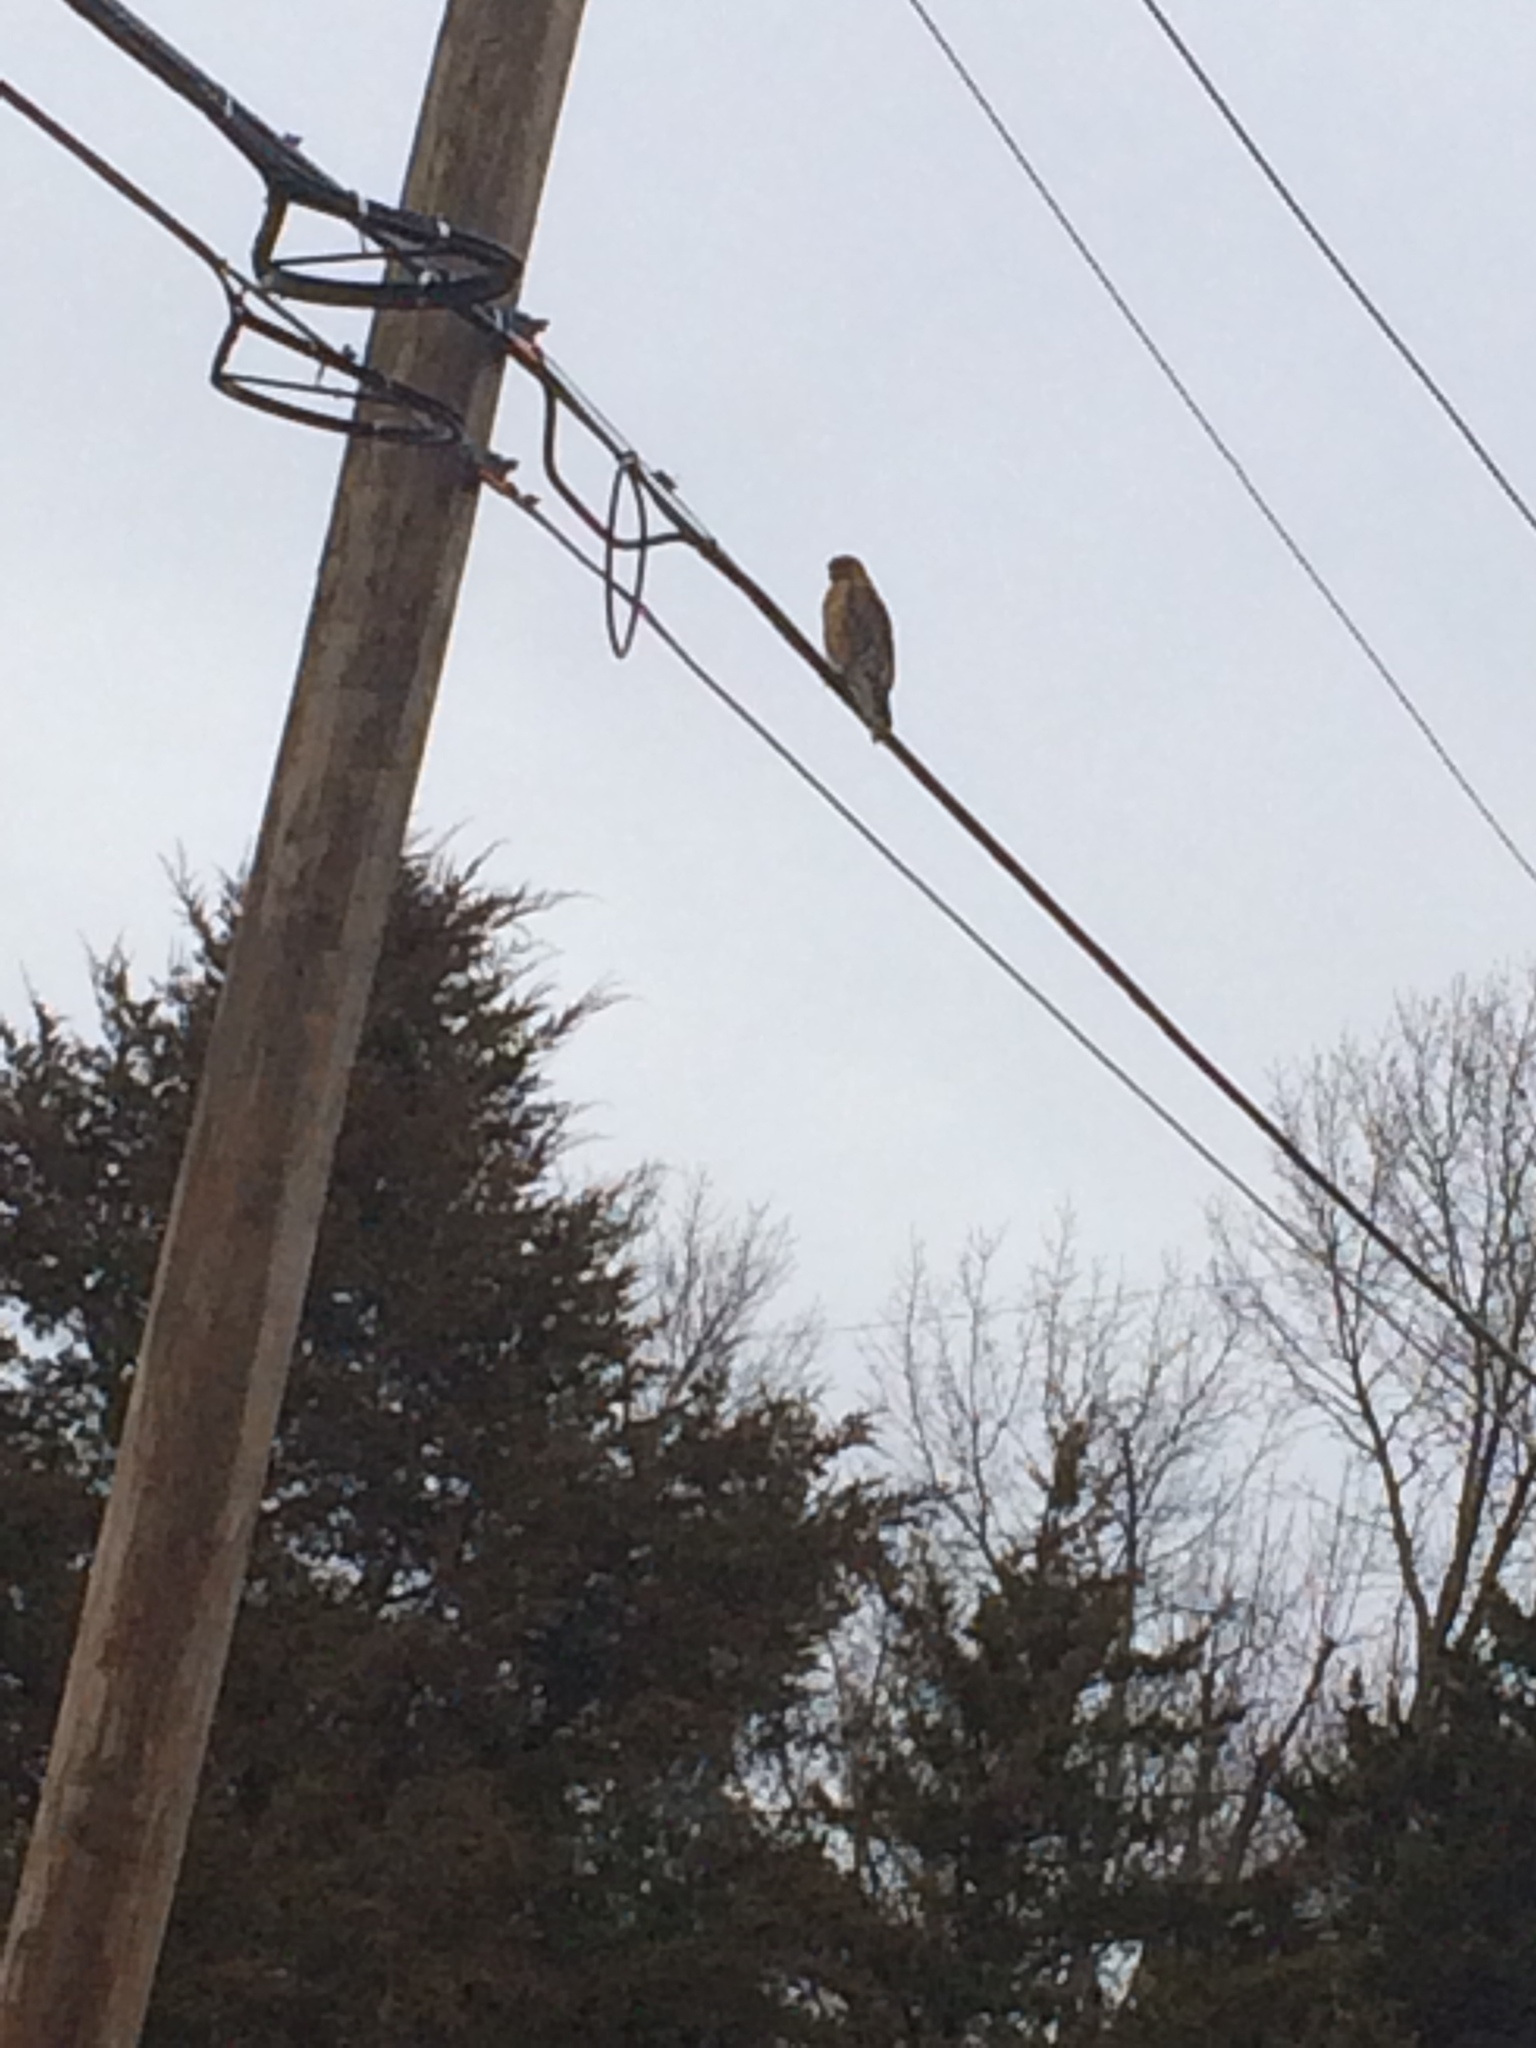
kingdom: Animalia
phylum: Chordata
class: Aves
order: Accipitriformes
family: Accipitridae
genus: Buteo
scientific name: Buteo lineatus
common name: Red-shouldered hawk
